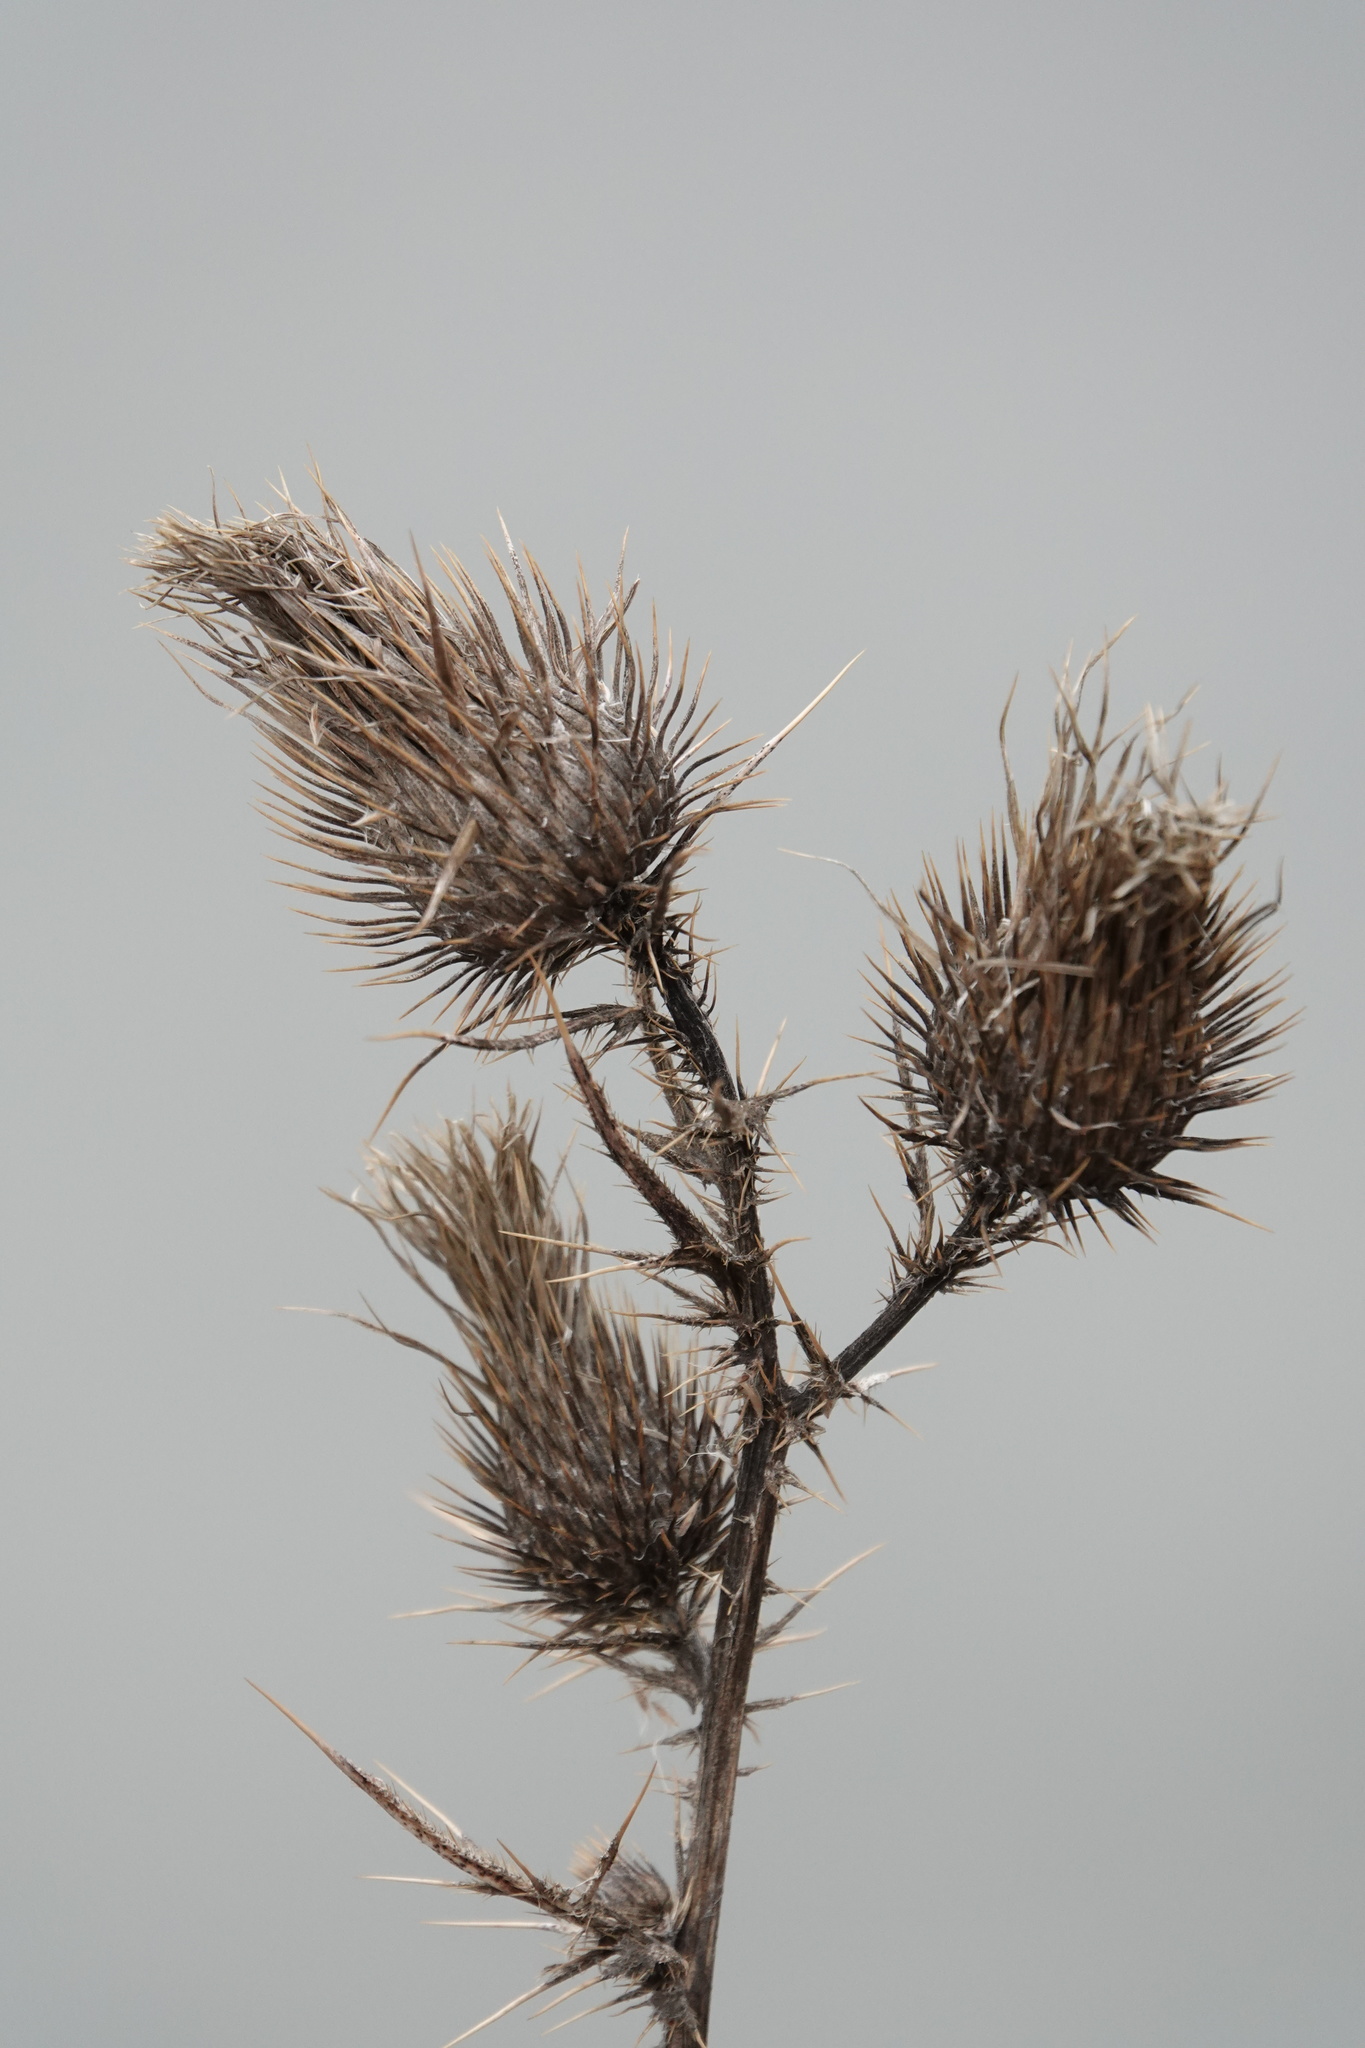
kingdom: Plantae
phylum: Tracheophyta
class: Magnoliopsida
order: Asterales
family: Asteraceae
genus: Cirsium
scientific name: Cirsium vulgare
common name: Bull thistle
